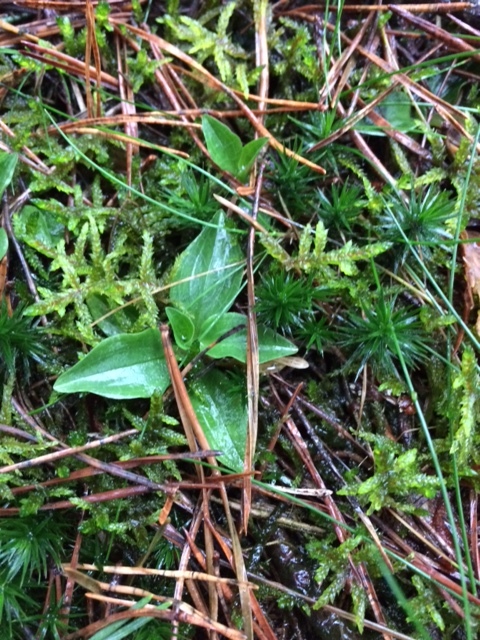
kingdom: Plantae
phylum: Tracheophyta
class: Liliopsida
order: Asparagales
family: Orchidaceae
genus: Goodyera
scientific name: Goodyera repens
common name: Creeping lady's-tresses
